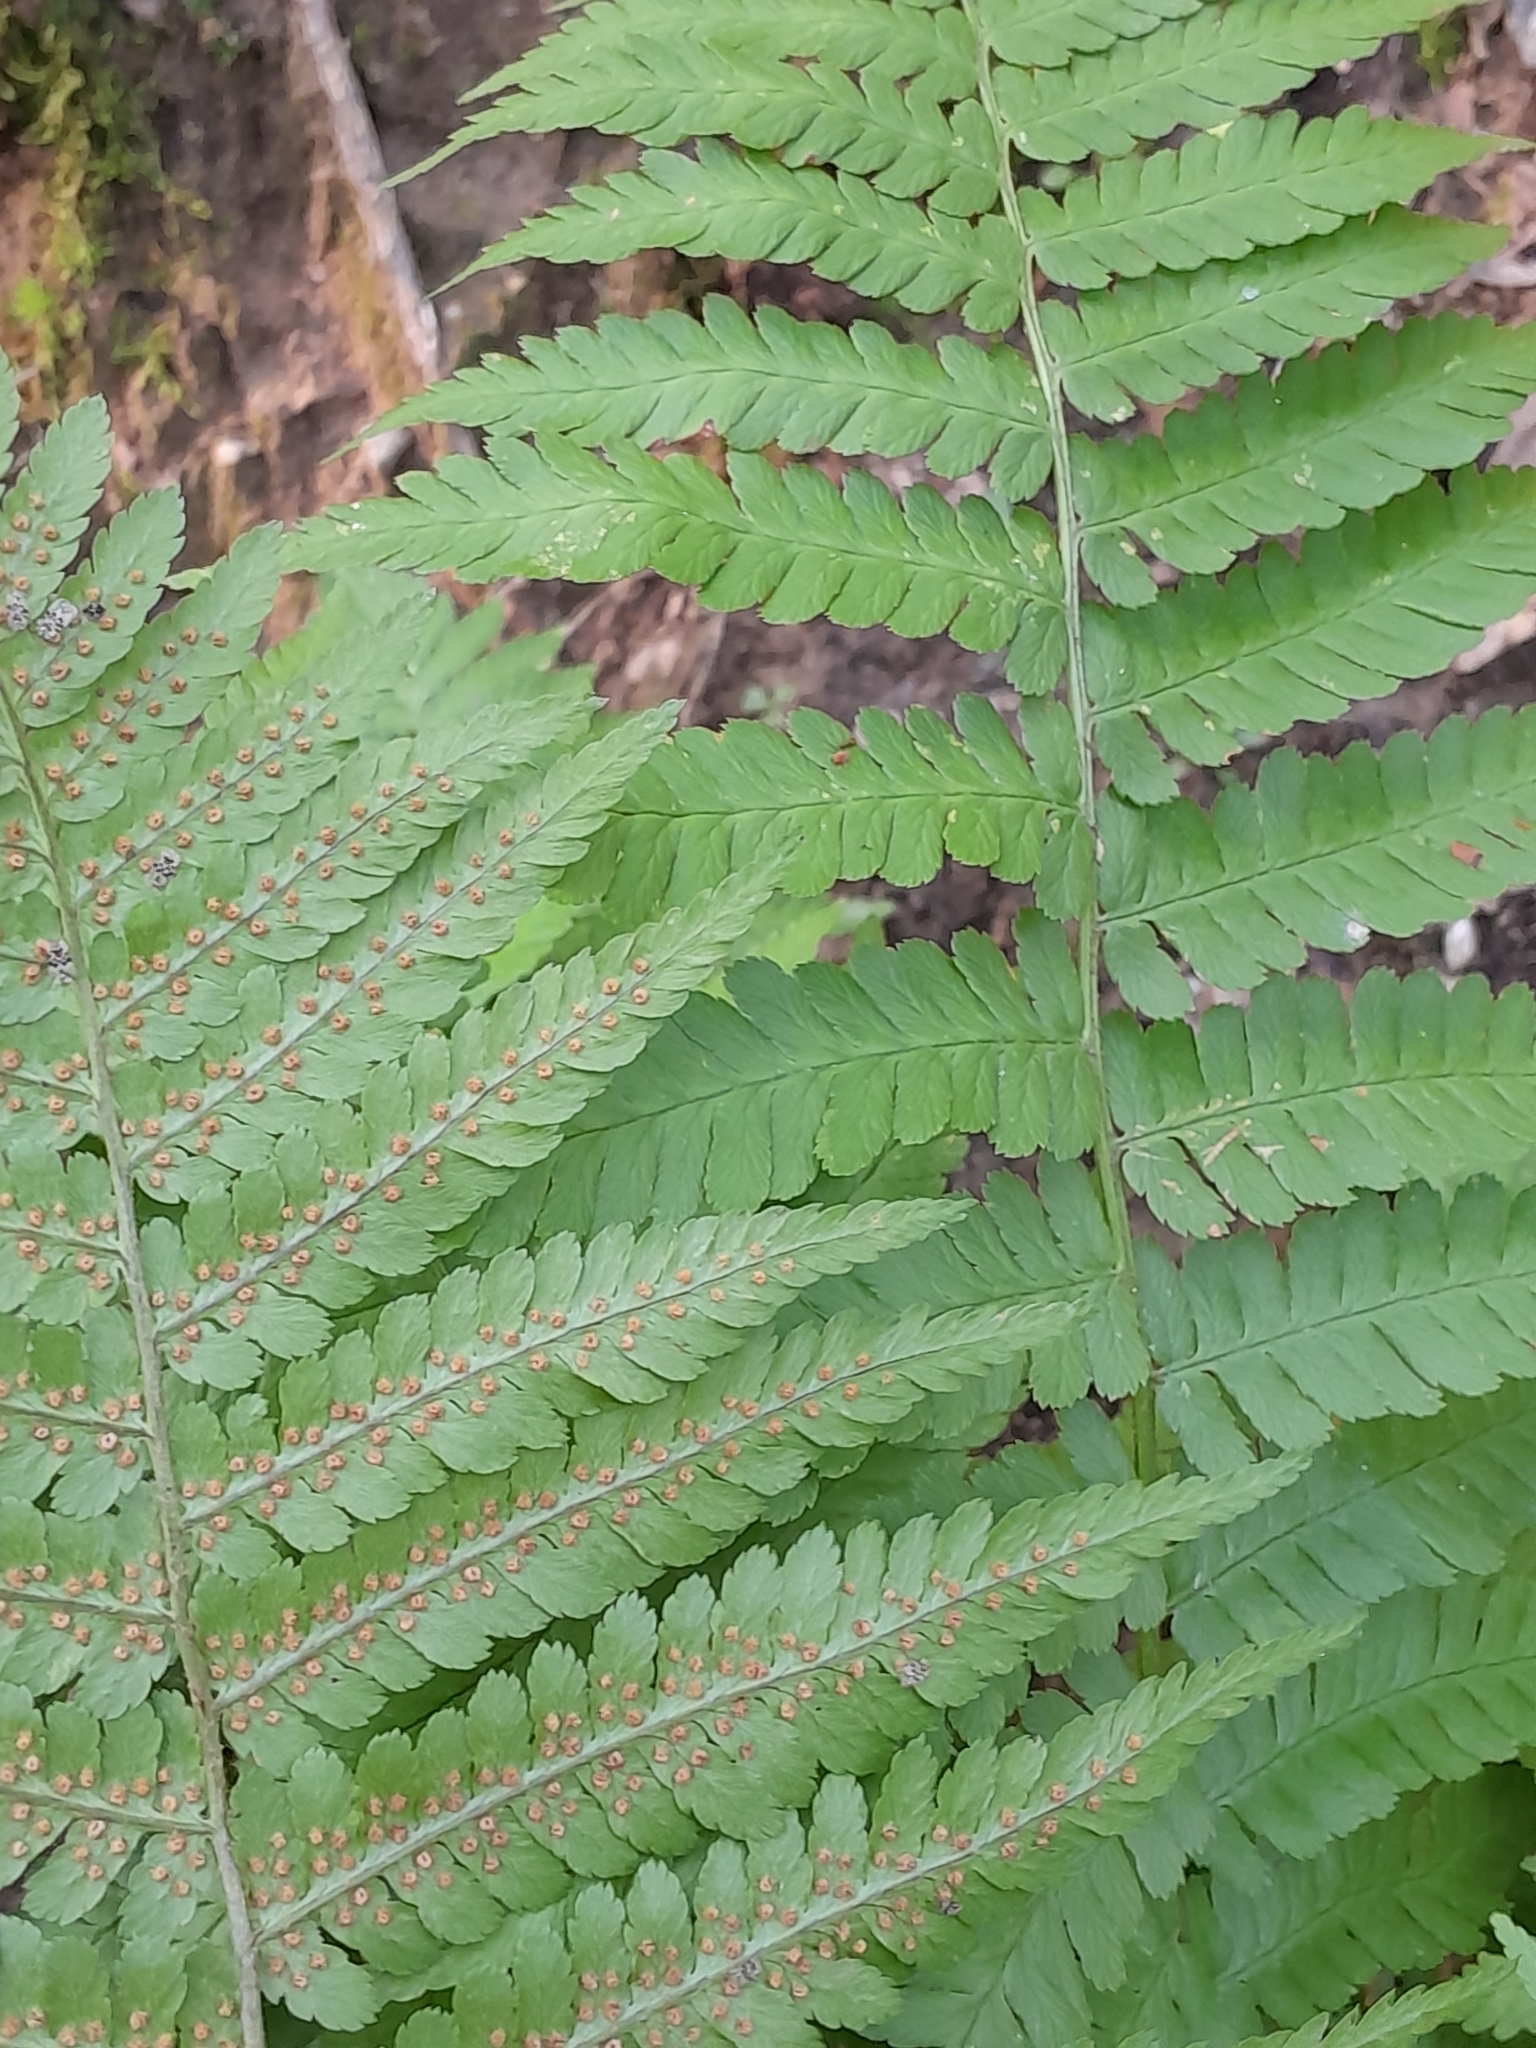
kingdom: Plantae
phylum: Tracheophyta
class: Polypodiopsida
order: Polypodiales
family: Dryopteridaceae
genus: Dryopteris
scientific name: Dryopteris filix-mas
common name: Male fern
